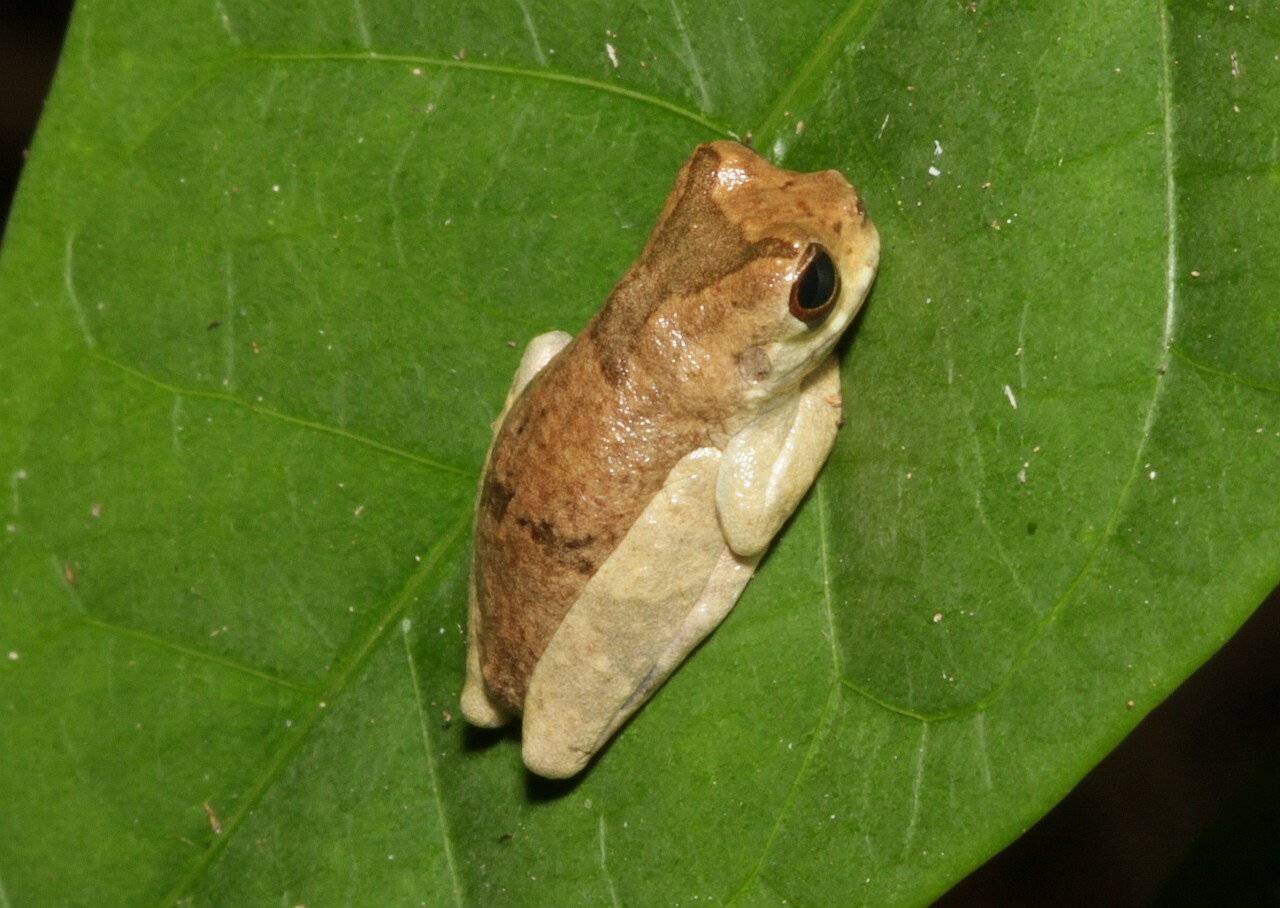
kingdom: Animalia
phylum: Chordata
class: Amphibia
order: Anura
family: Hylidae
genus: Dendropsophus
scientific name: Dendropsophus parviceps
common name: Sarayacu treefrog
